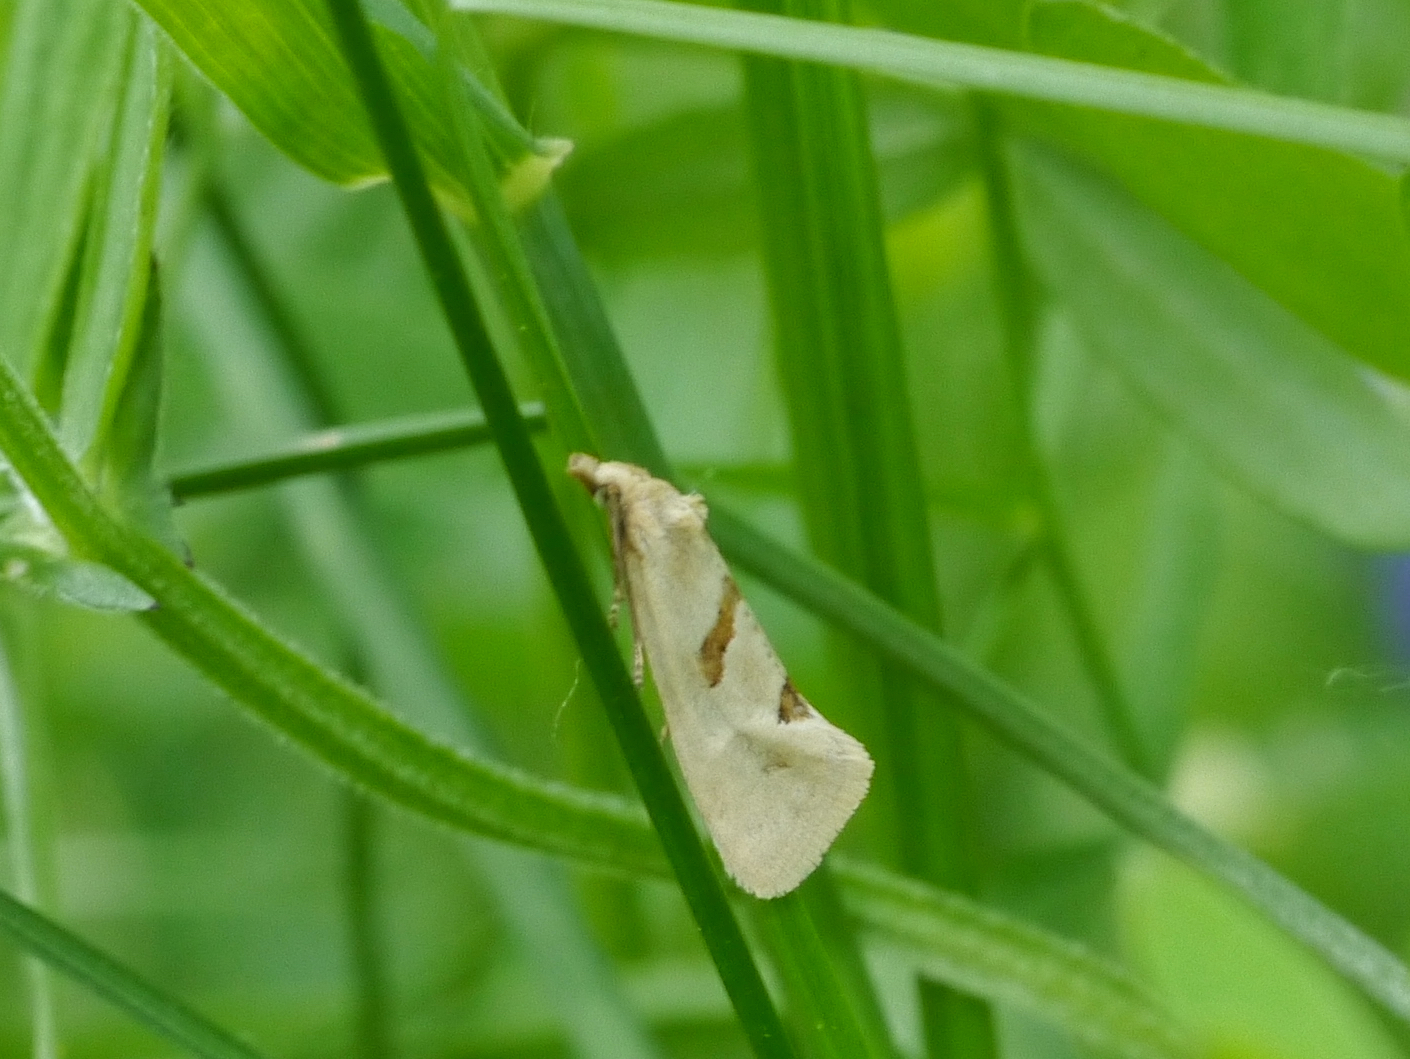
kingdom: Animalia
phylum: Arthropoda
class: Insecta
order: Lepidoptera
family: Tortricidae
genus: Aethes
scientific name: Aethes smeathmanniana
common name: Yarrow conch
